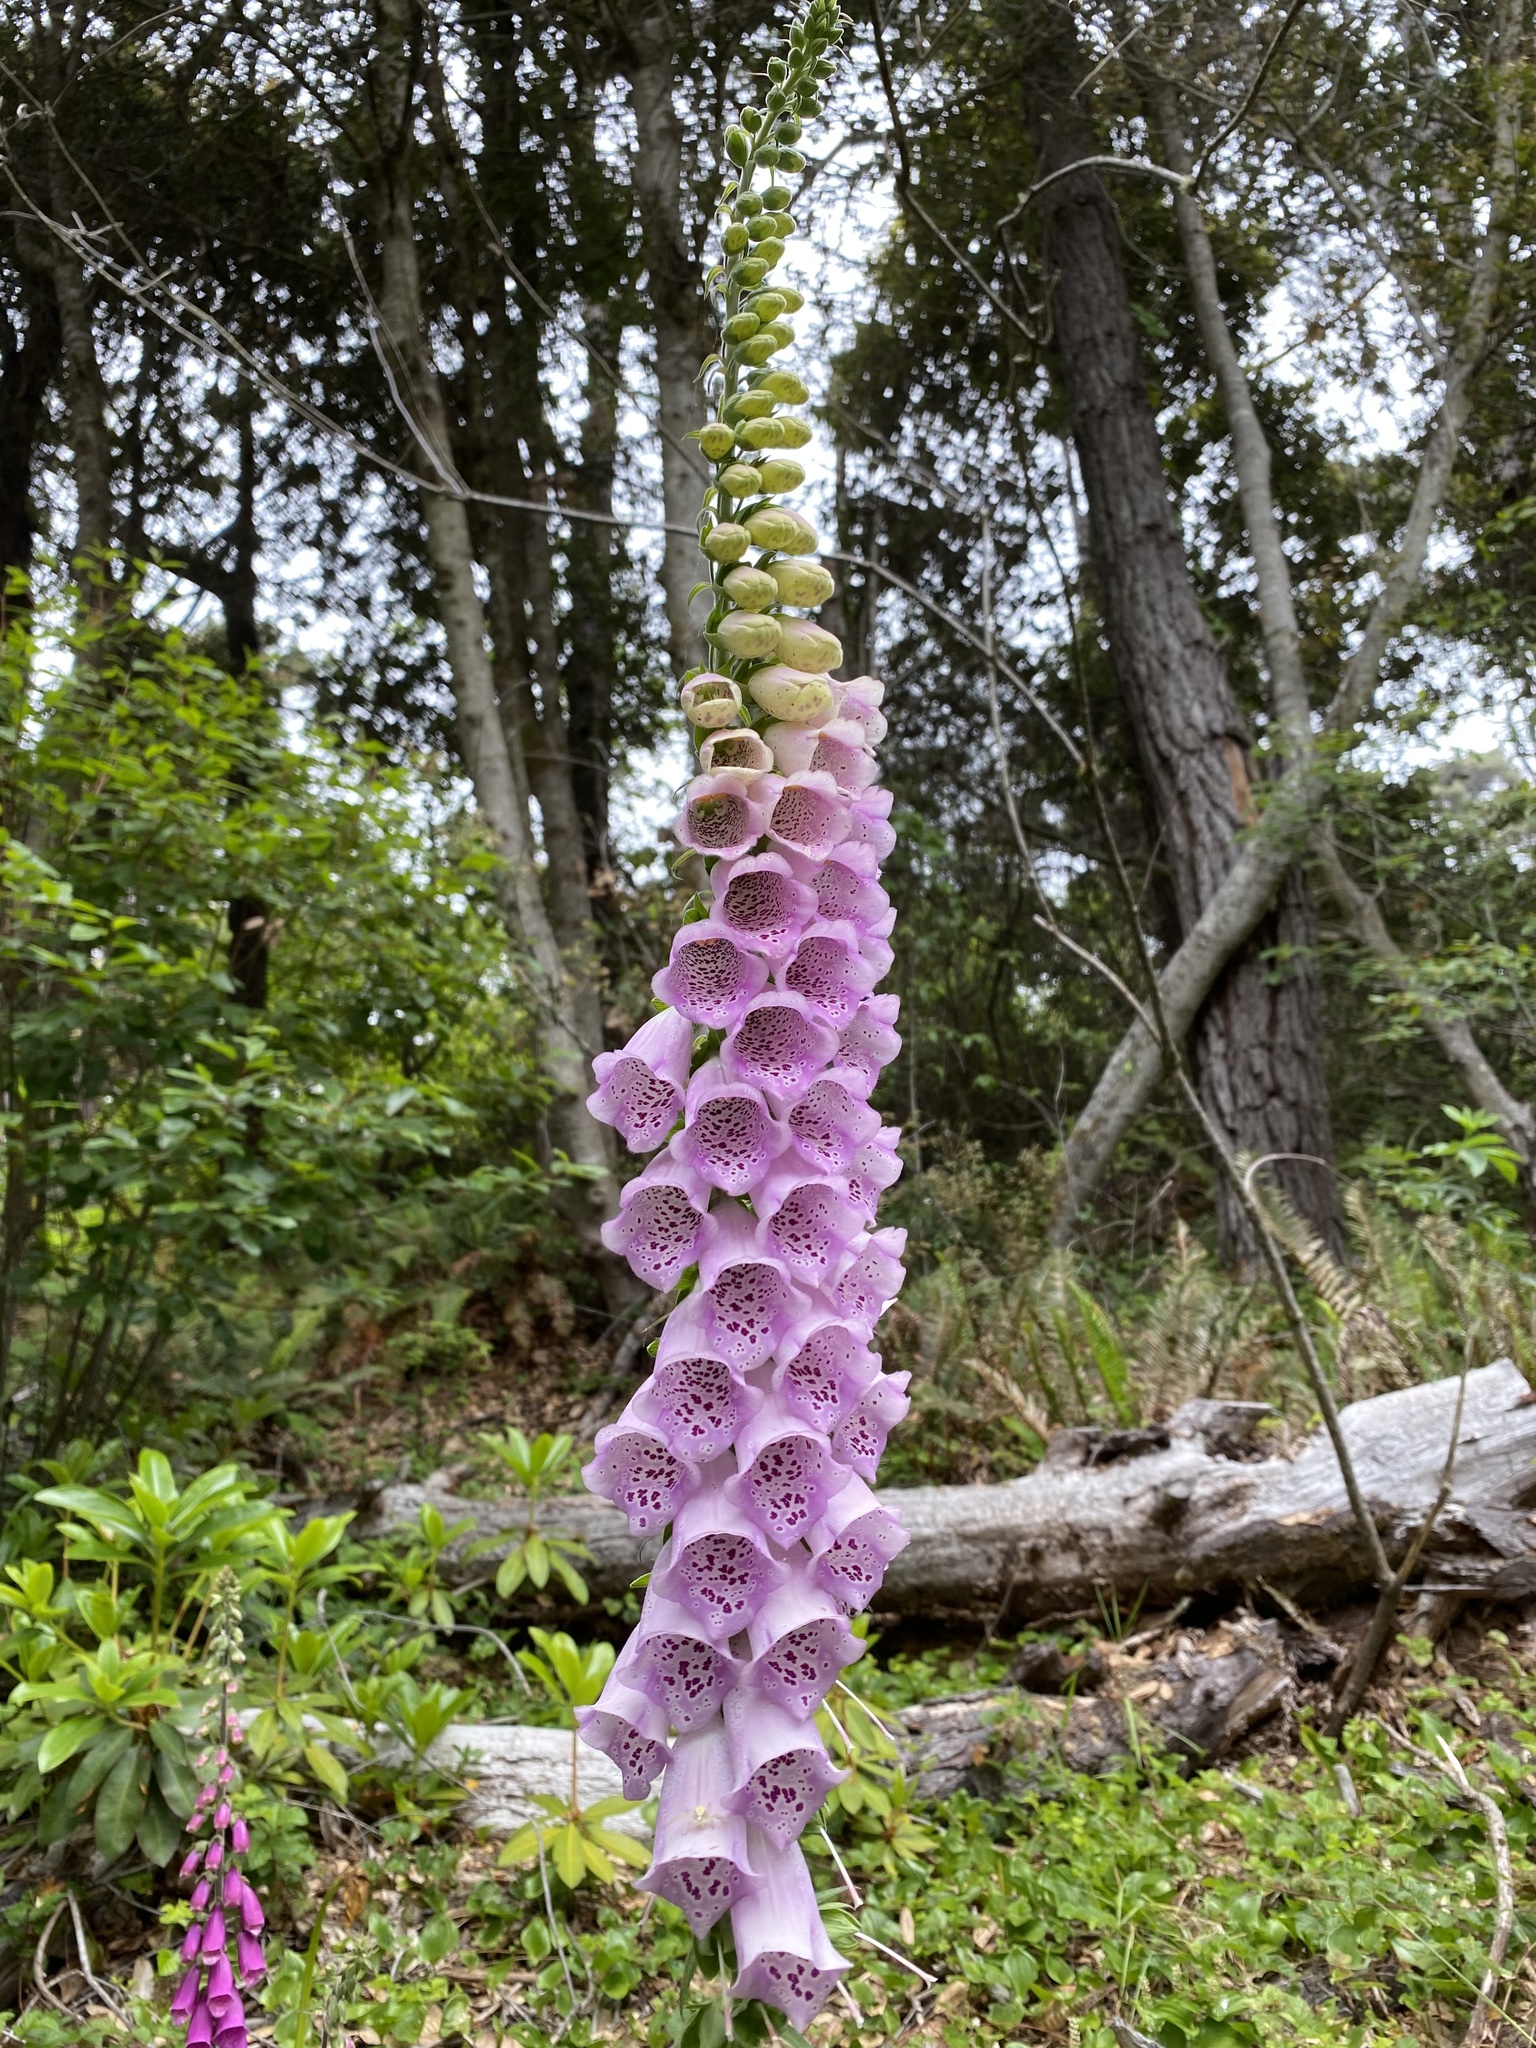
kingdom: Plantae
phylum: Tracheophyta
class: Magnoliopsida
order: Lamiales
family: Plantaginaceae
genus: Digitalis
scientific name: Digitalis purpurea
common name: Foxglove
